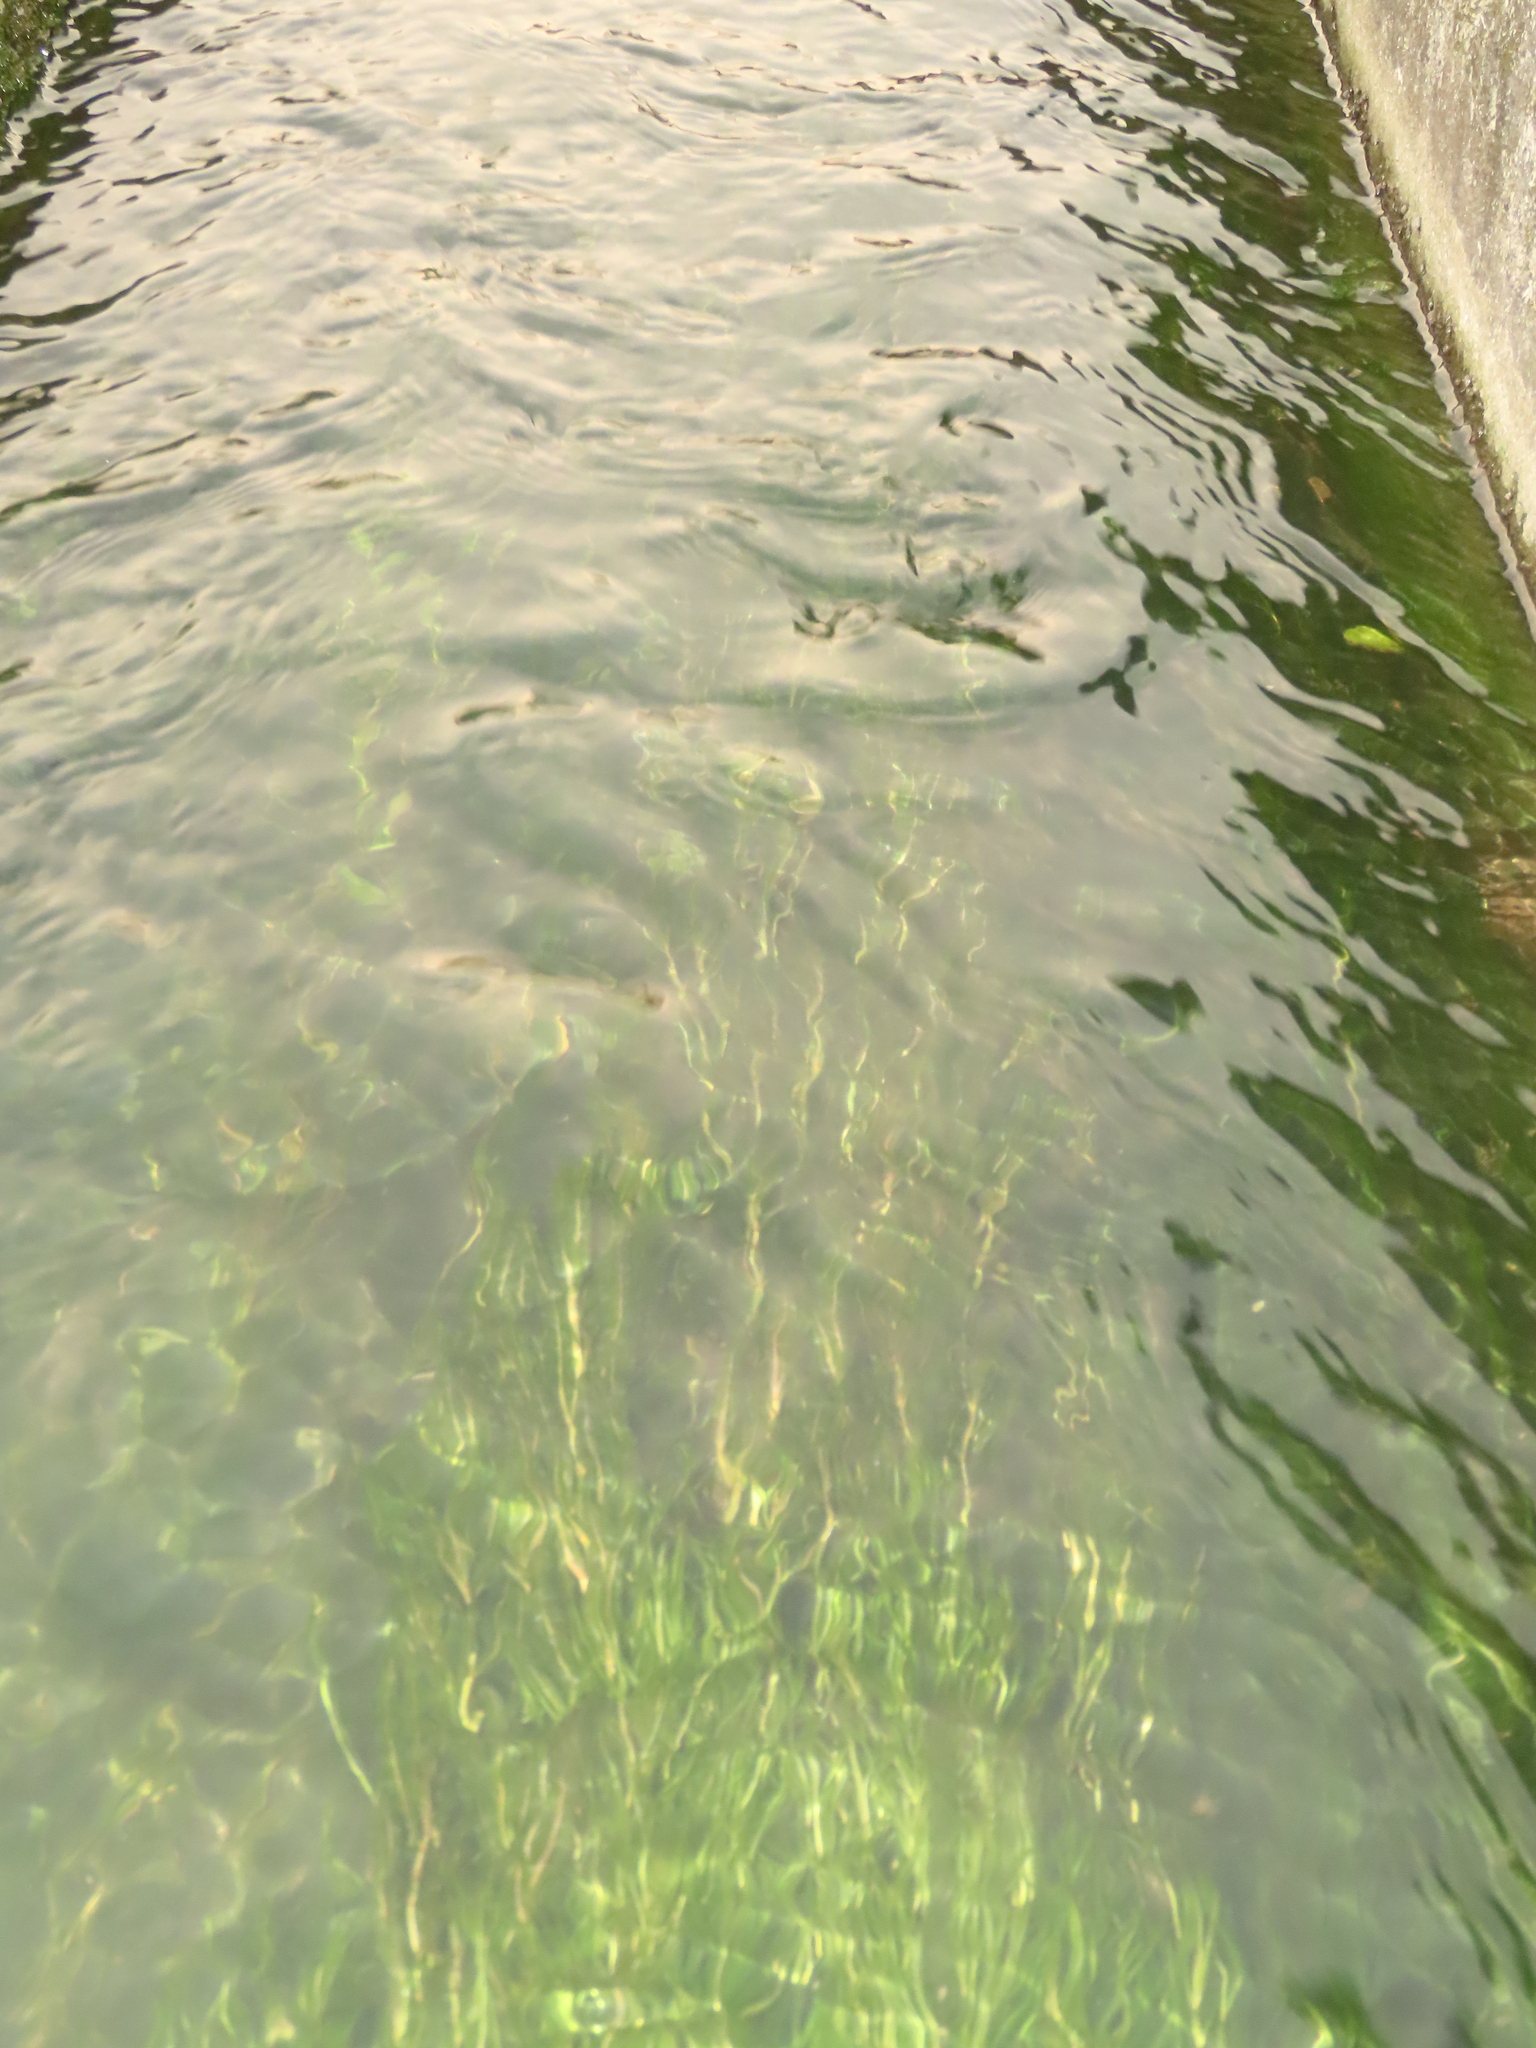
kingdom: Plantae
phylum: Tracheophyta
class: Liliopsida
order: Alismatales
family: Potamogetonaceae
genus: Potamogeton
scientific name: Potamogeton crispus
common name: Curled pondweed
